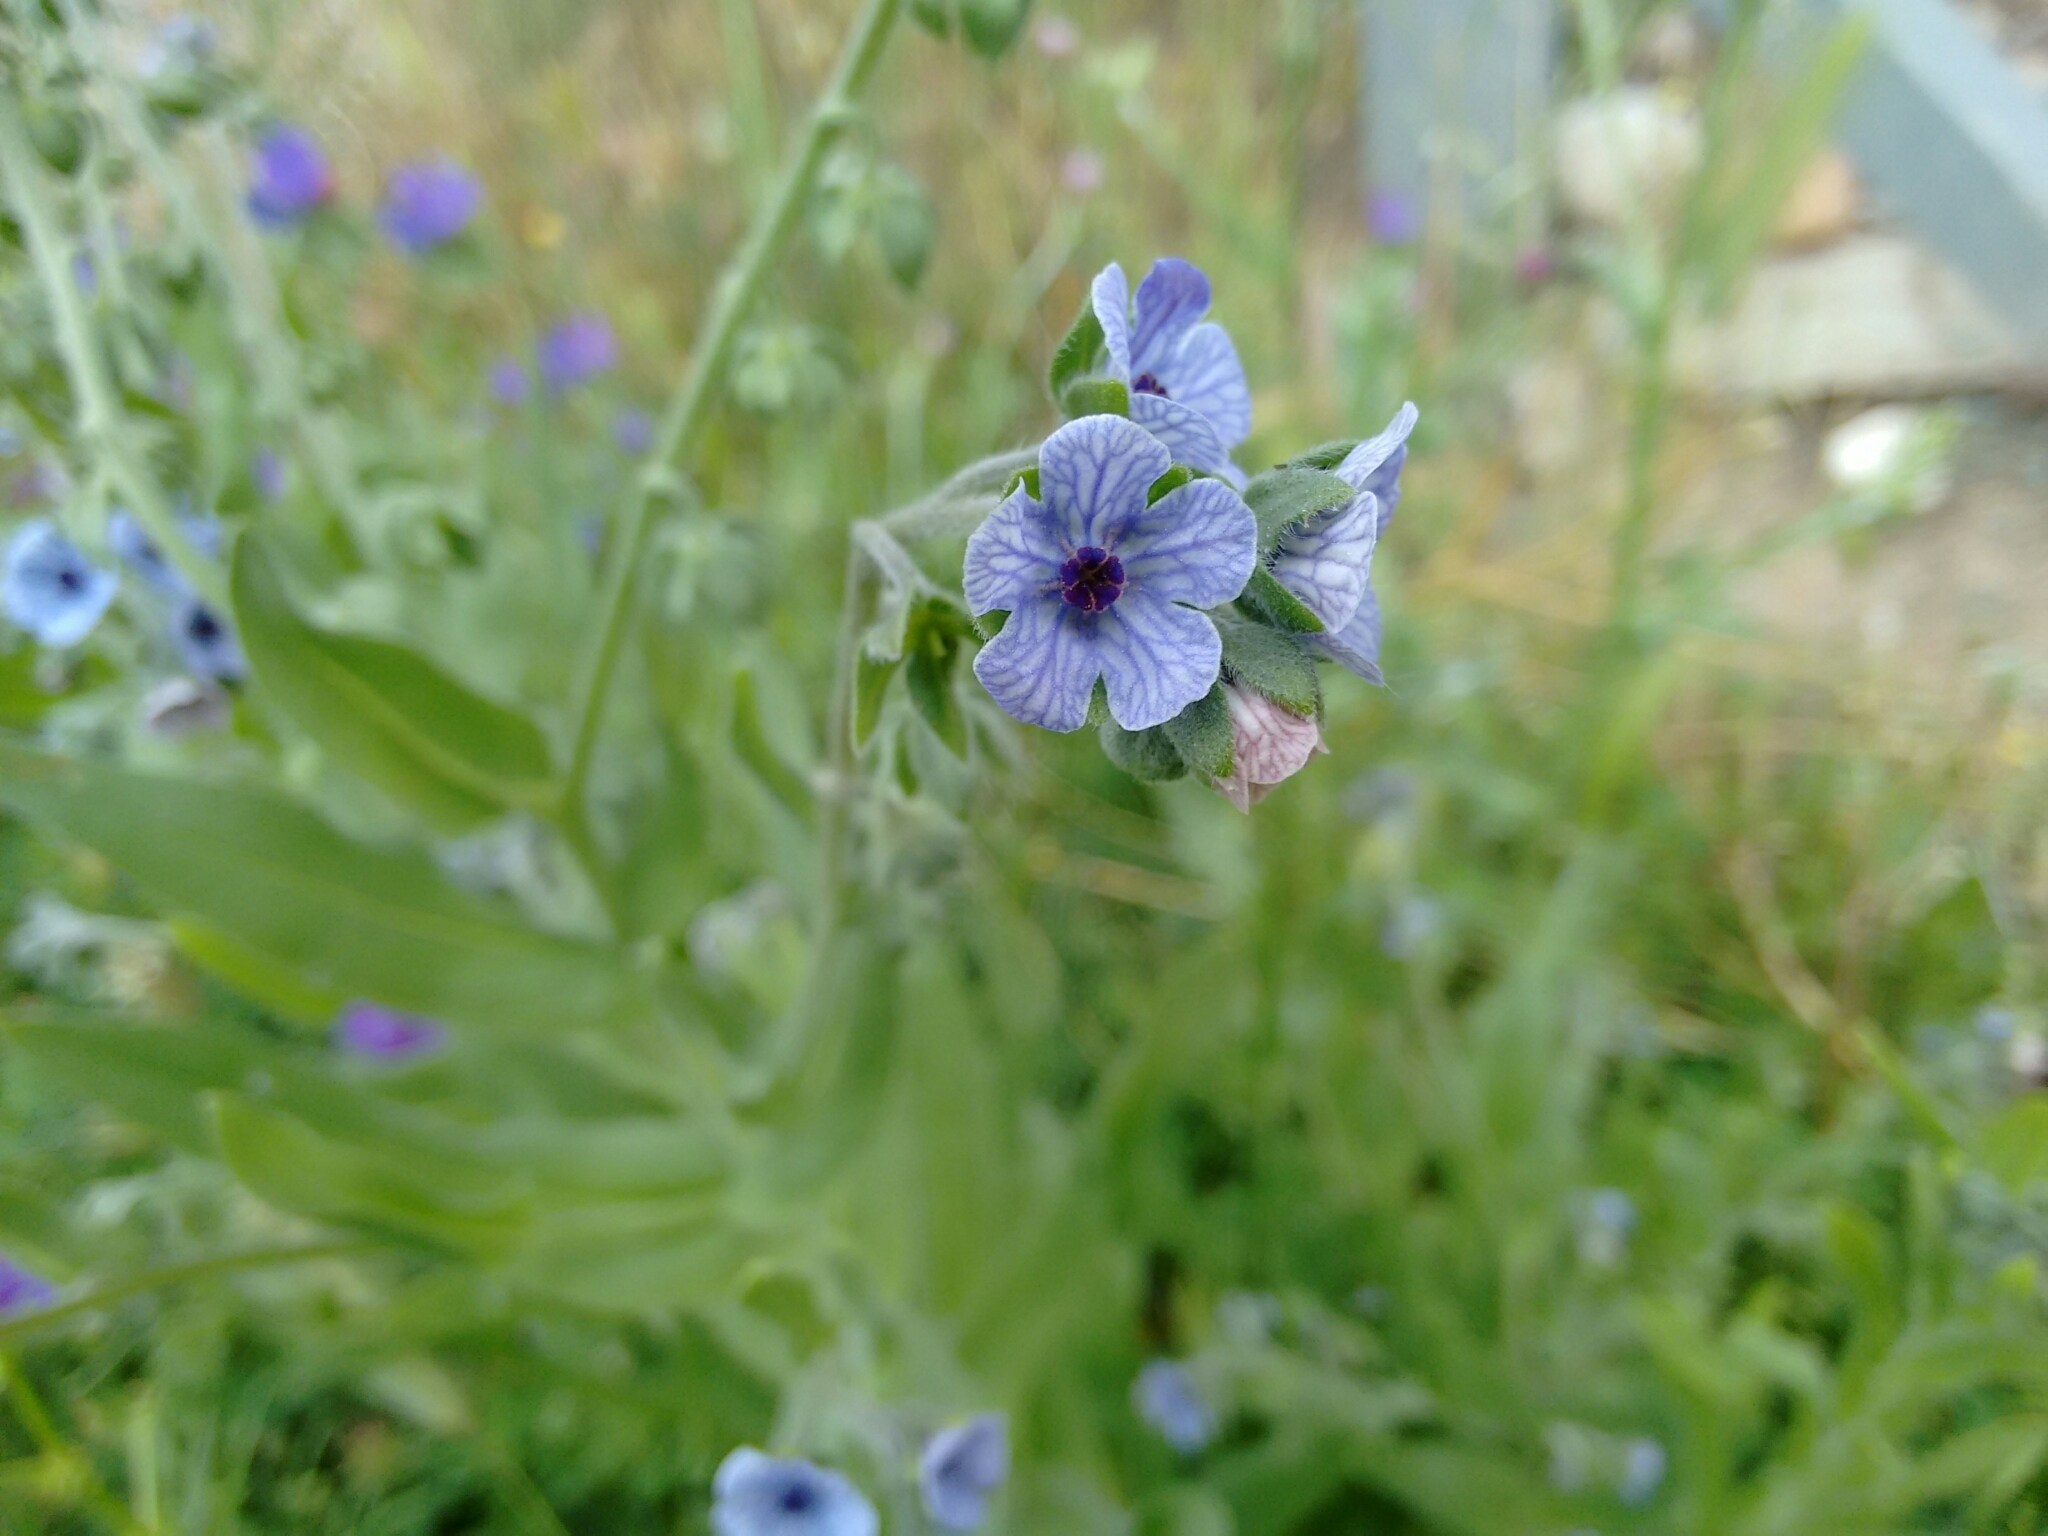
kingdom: Plantae
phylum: Tracheophyta
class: Magnoliopsida
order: Boraginales
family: Boraginaceae
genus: Cynoglossum
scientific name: Cynoglossum creticum
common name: Blue hound's tongue
